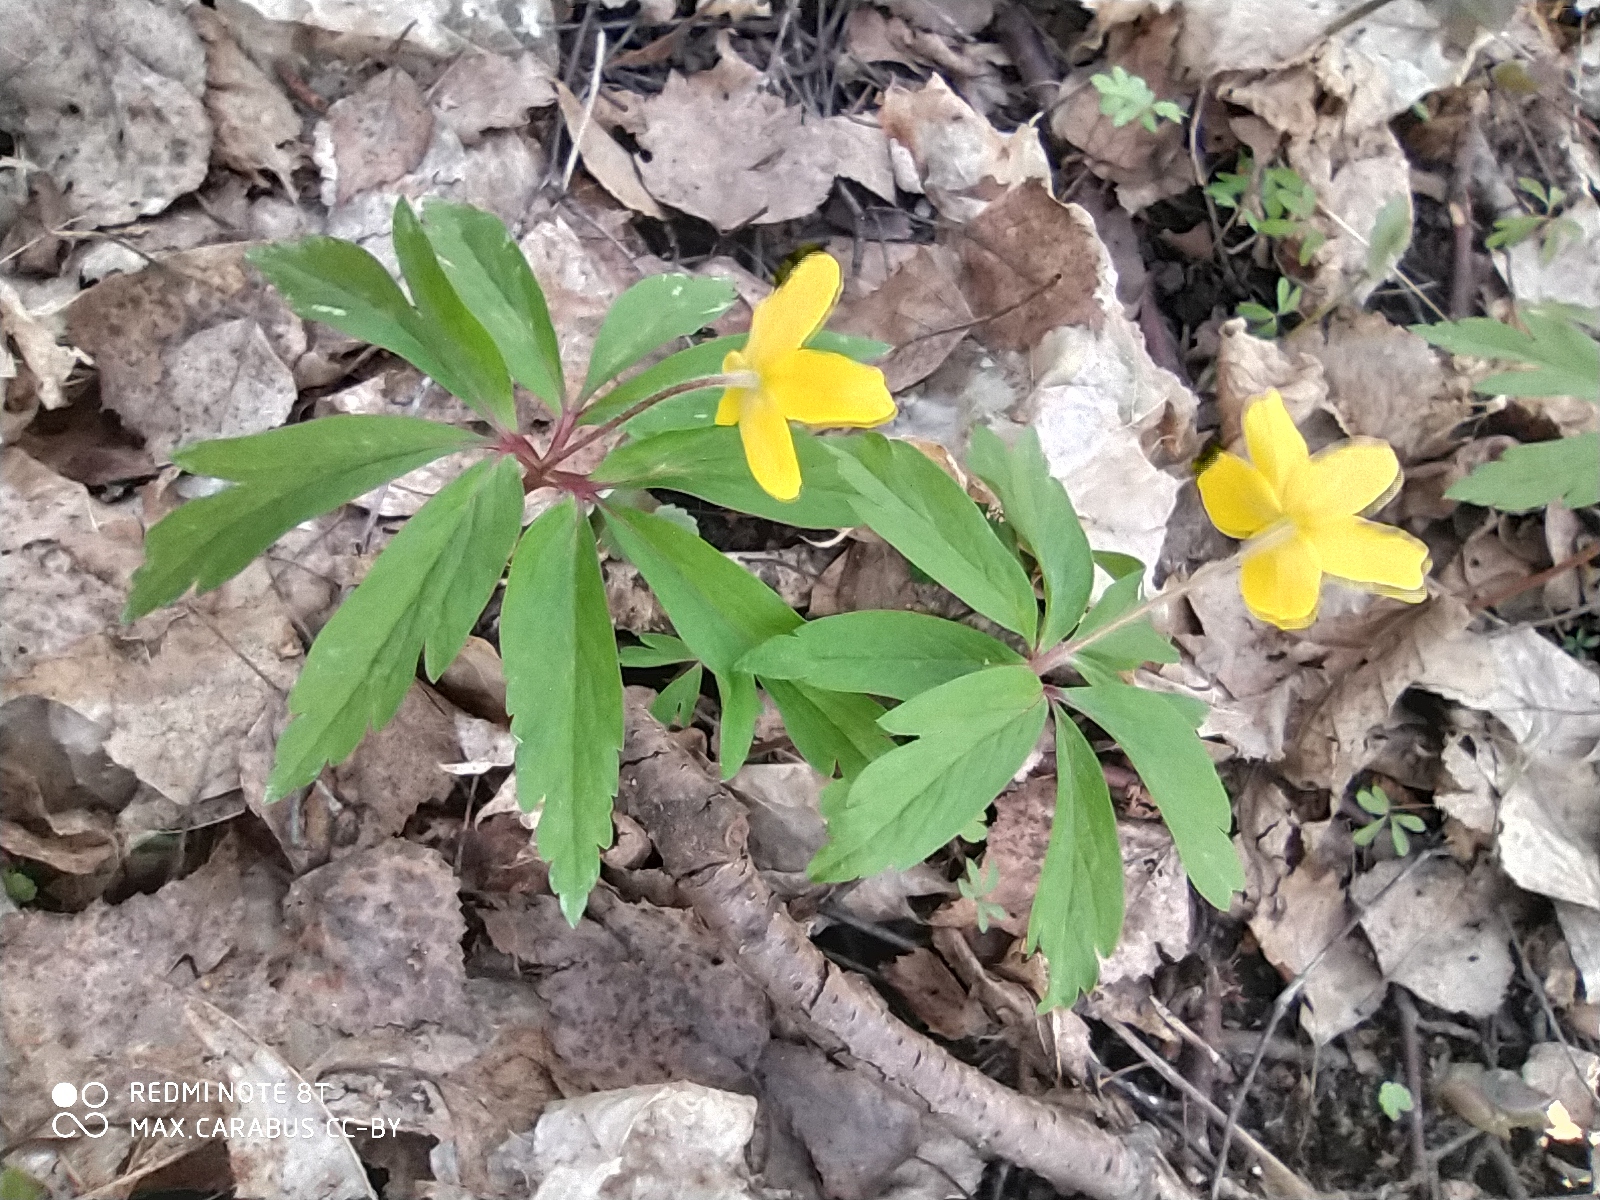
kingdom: Plantae
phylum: Tracheophyta
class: Magnoliopsida
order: Ranunculales
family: Ranunculaceae
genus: Anemone
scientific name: Anemone ranunculoides
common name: Yellow anemone
